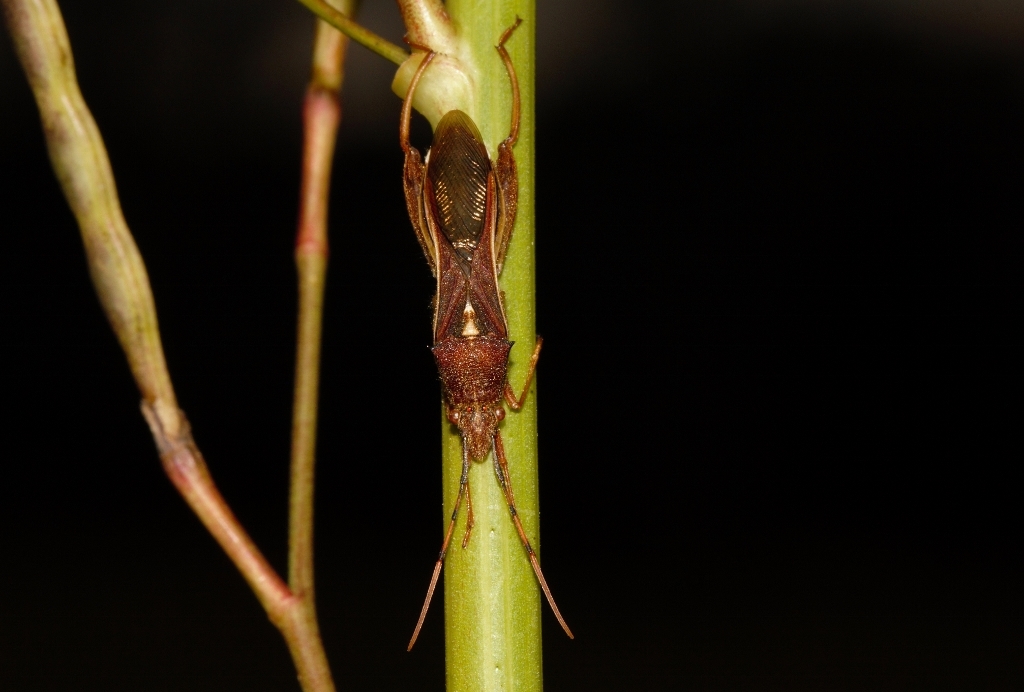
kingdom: Animalia
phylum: Arthropoda
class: Insecta
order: Hemiptera
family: Alydidae
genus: Mirperus
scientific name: Mirperus jaculus
